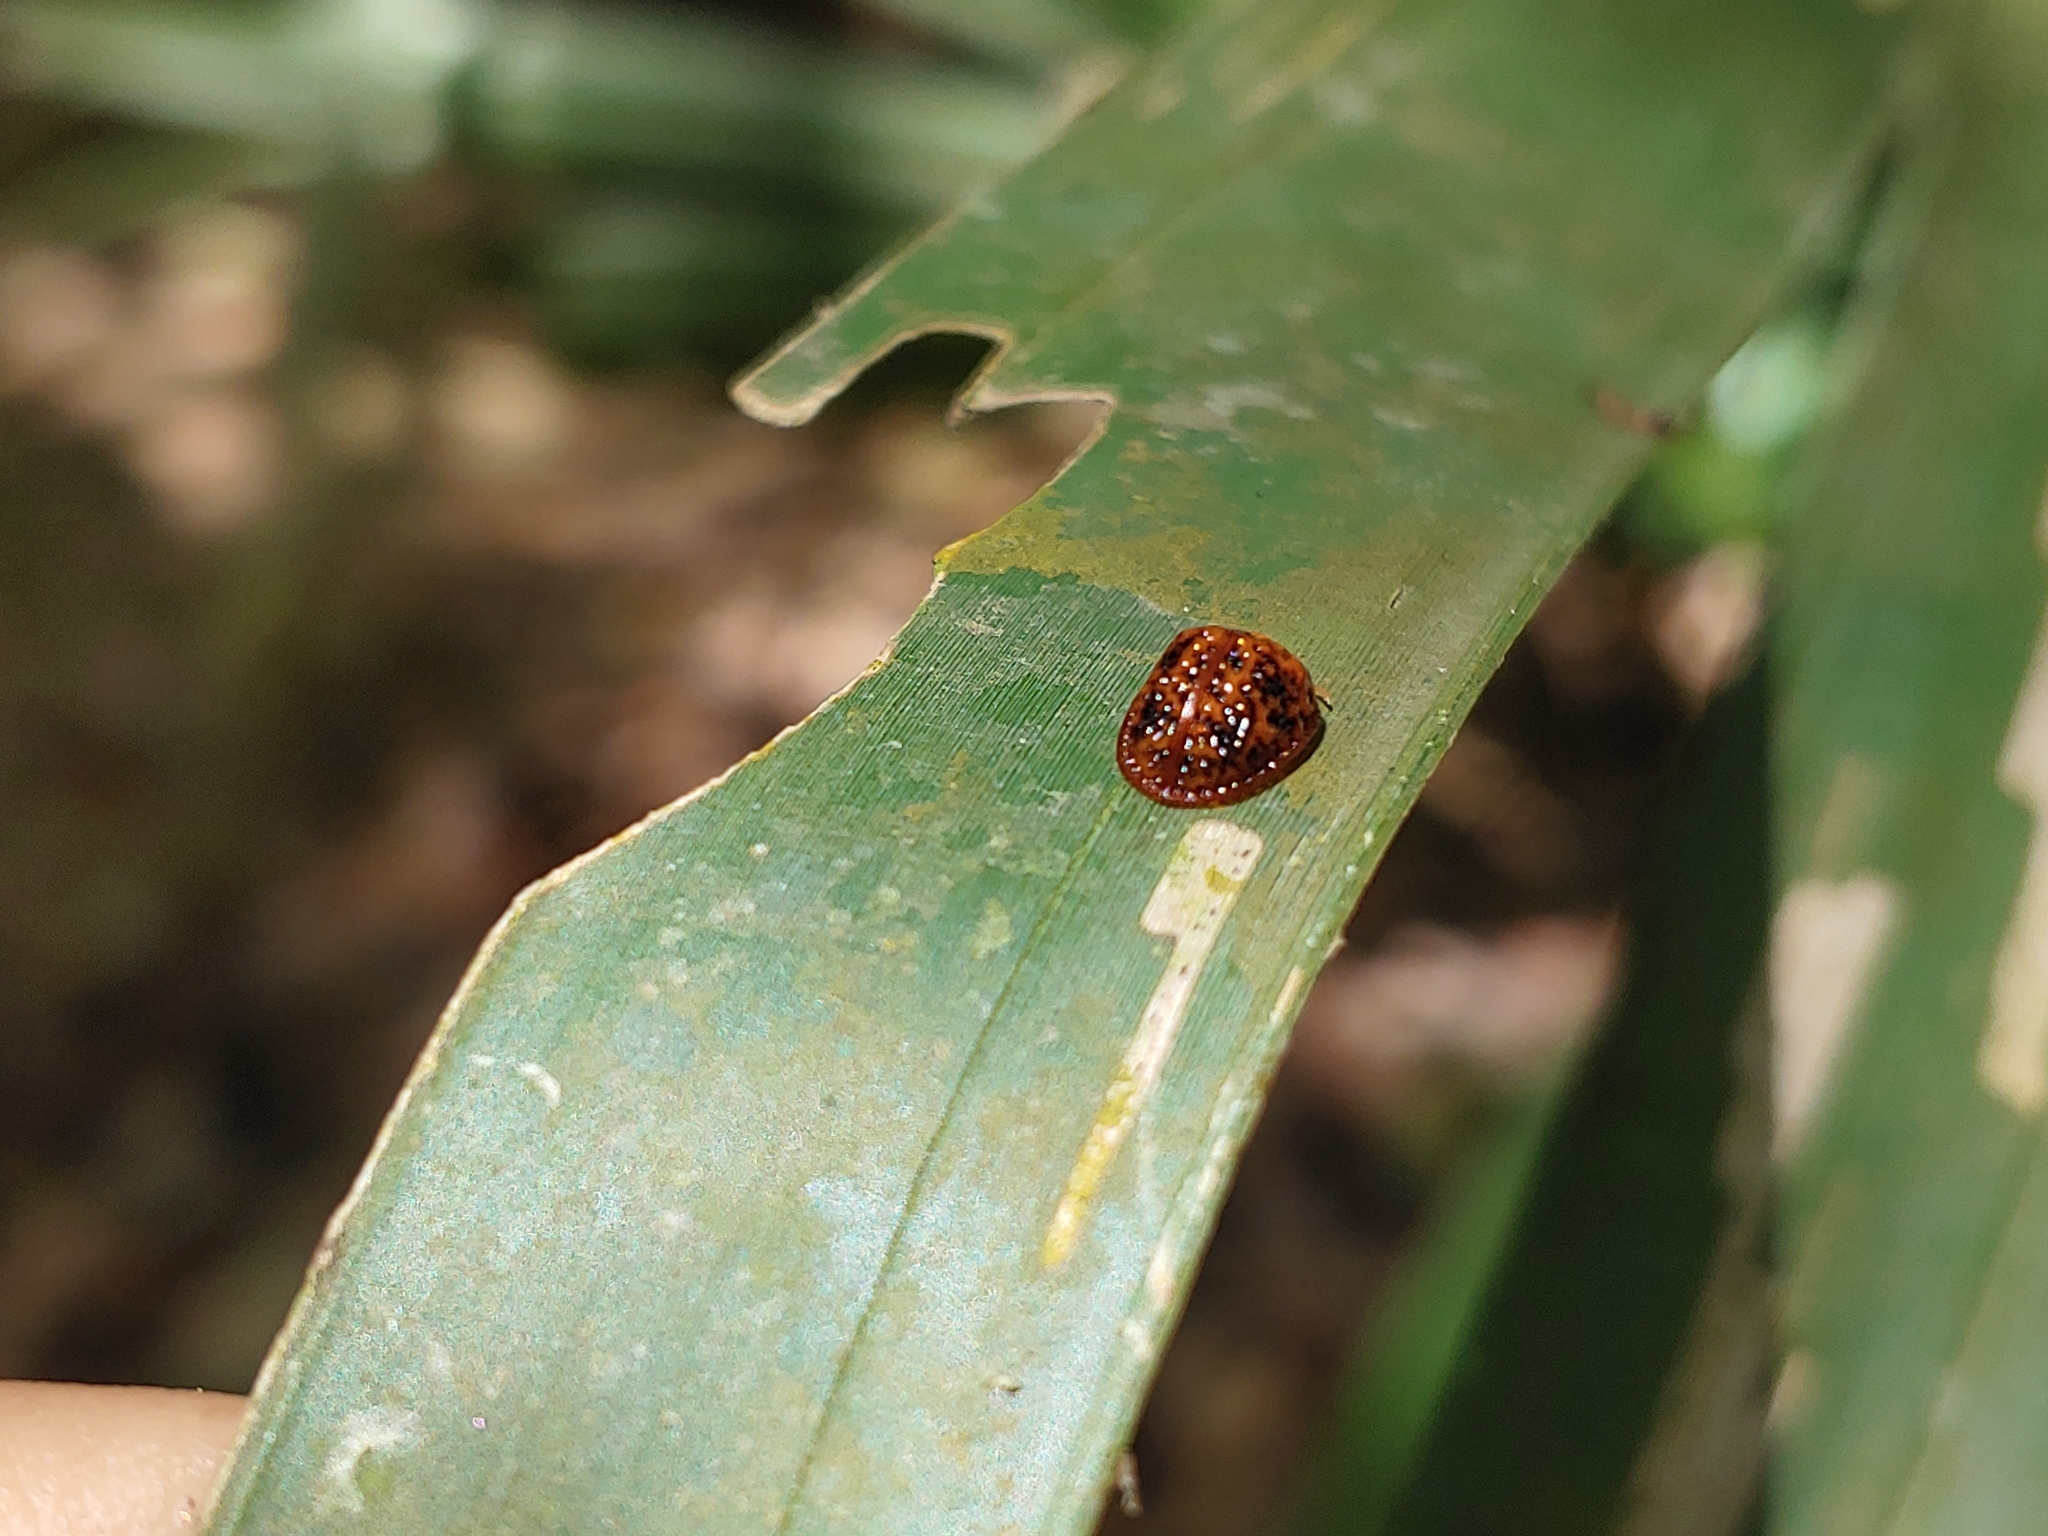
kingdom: Animalia
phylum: Arthropoda
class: Insecta
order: Coleoptera
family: Chrysomelidae
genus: Hemisphaerota
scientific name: Hemisphaerota palmarum
